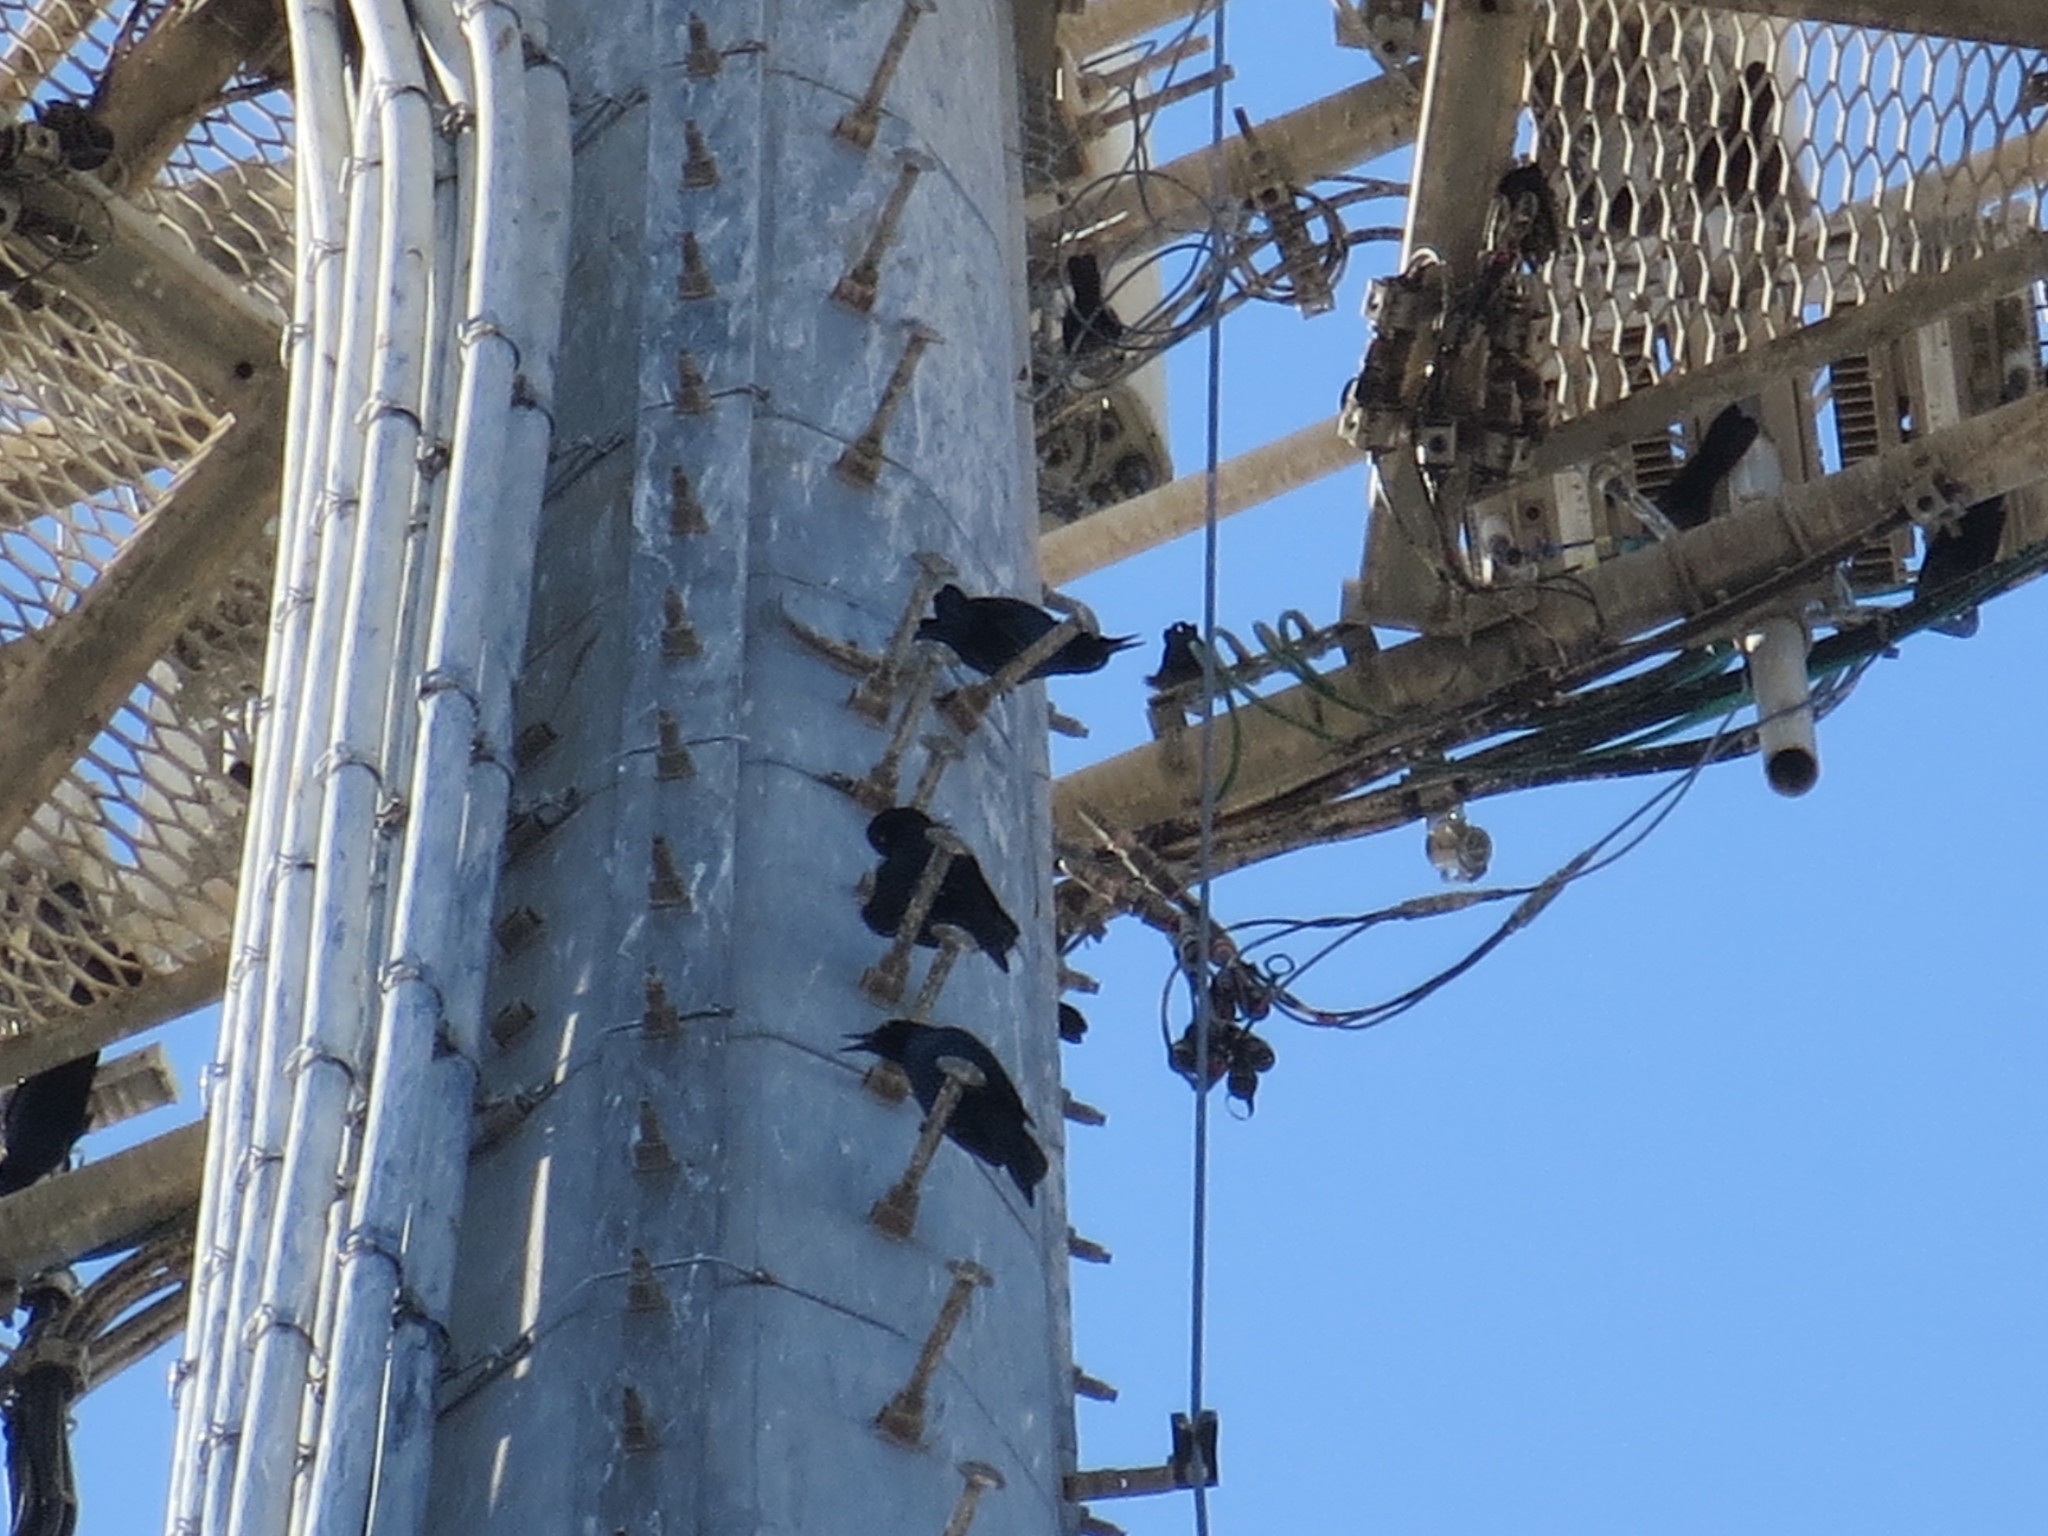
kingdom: Animalia
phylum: Chordata
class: Aves
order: Passeriformes
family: Icteridae
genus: Quiscalus
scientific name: Quiscalus major
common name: Boat-tailed grackle
